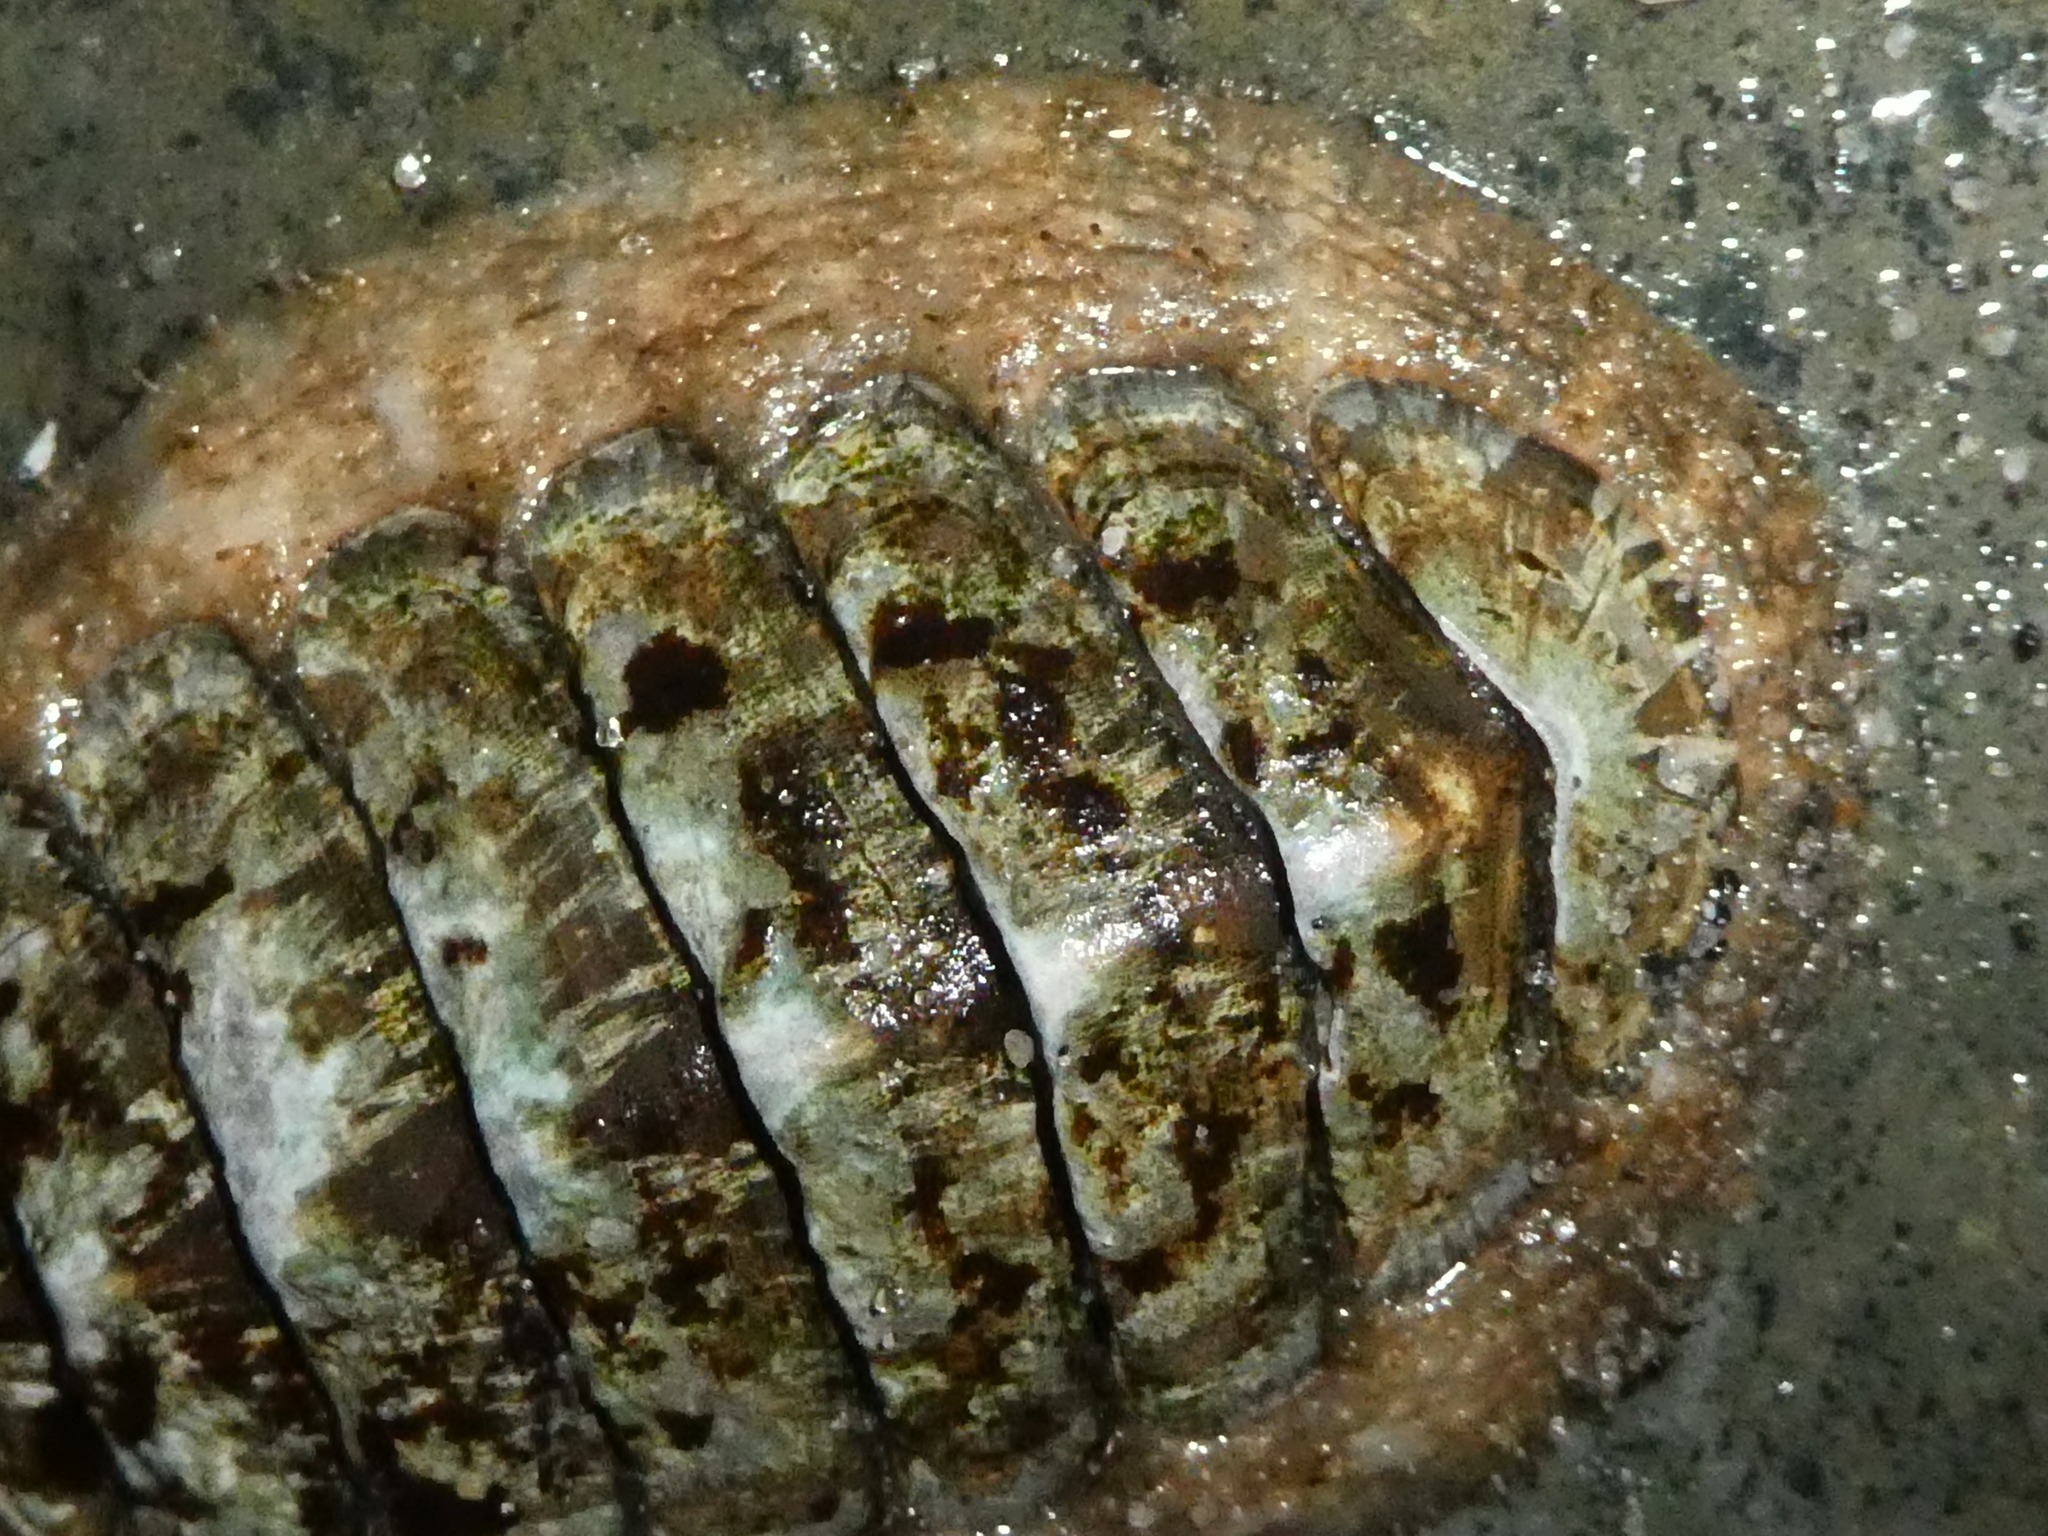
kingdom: Animalia
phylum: Mollusca
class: Polyplacophora
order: Chitonida
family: Mopaliidae
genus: Mopalia
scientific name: Mopalia lignosa
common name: Woody chiton
